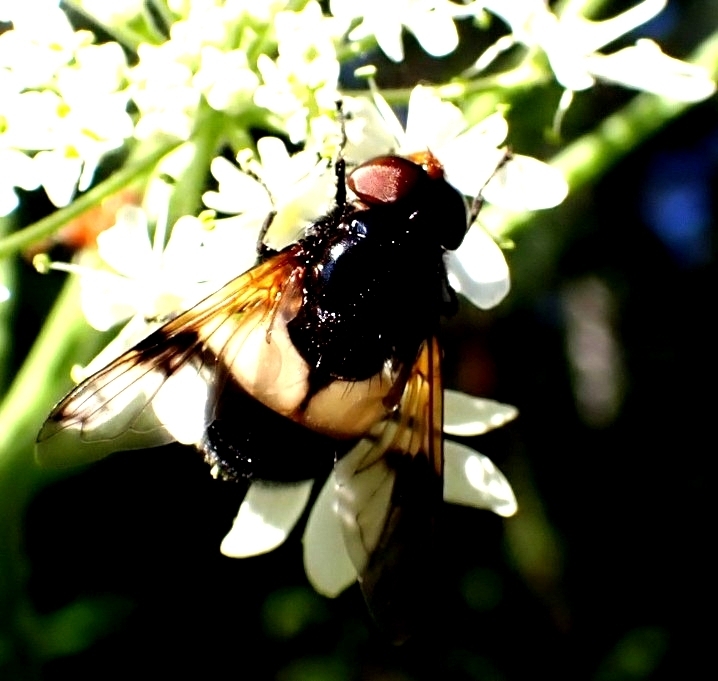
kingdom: Animalia
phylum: Arthropoda
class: Insecta
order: Diptera
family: Syrphidae
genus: Volucella
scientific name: Volucella pellucens
